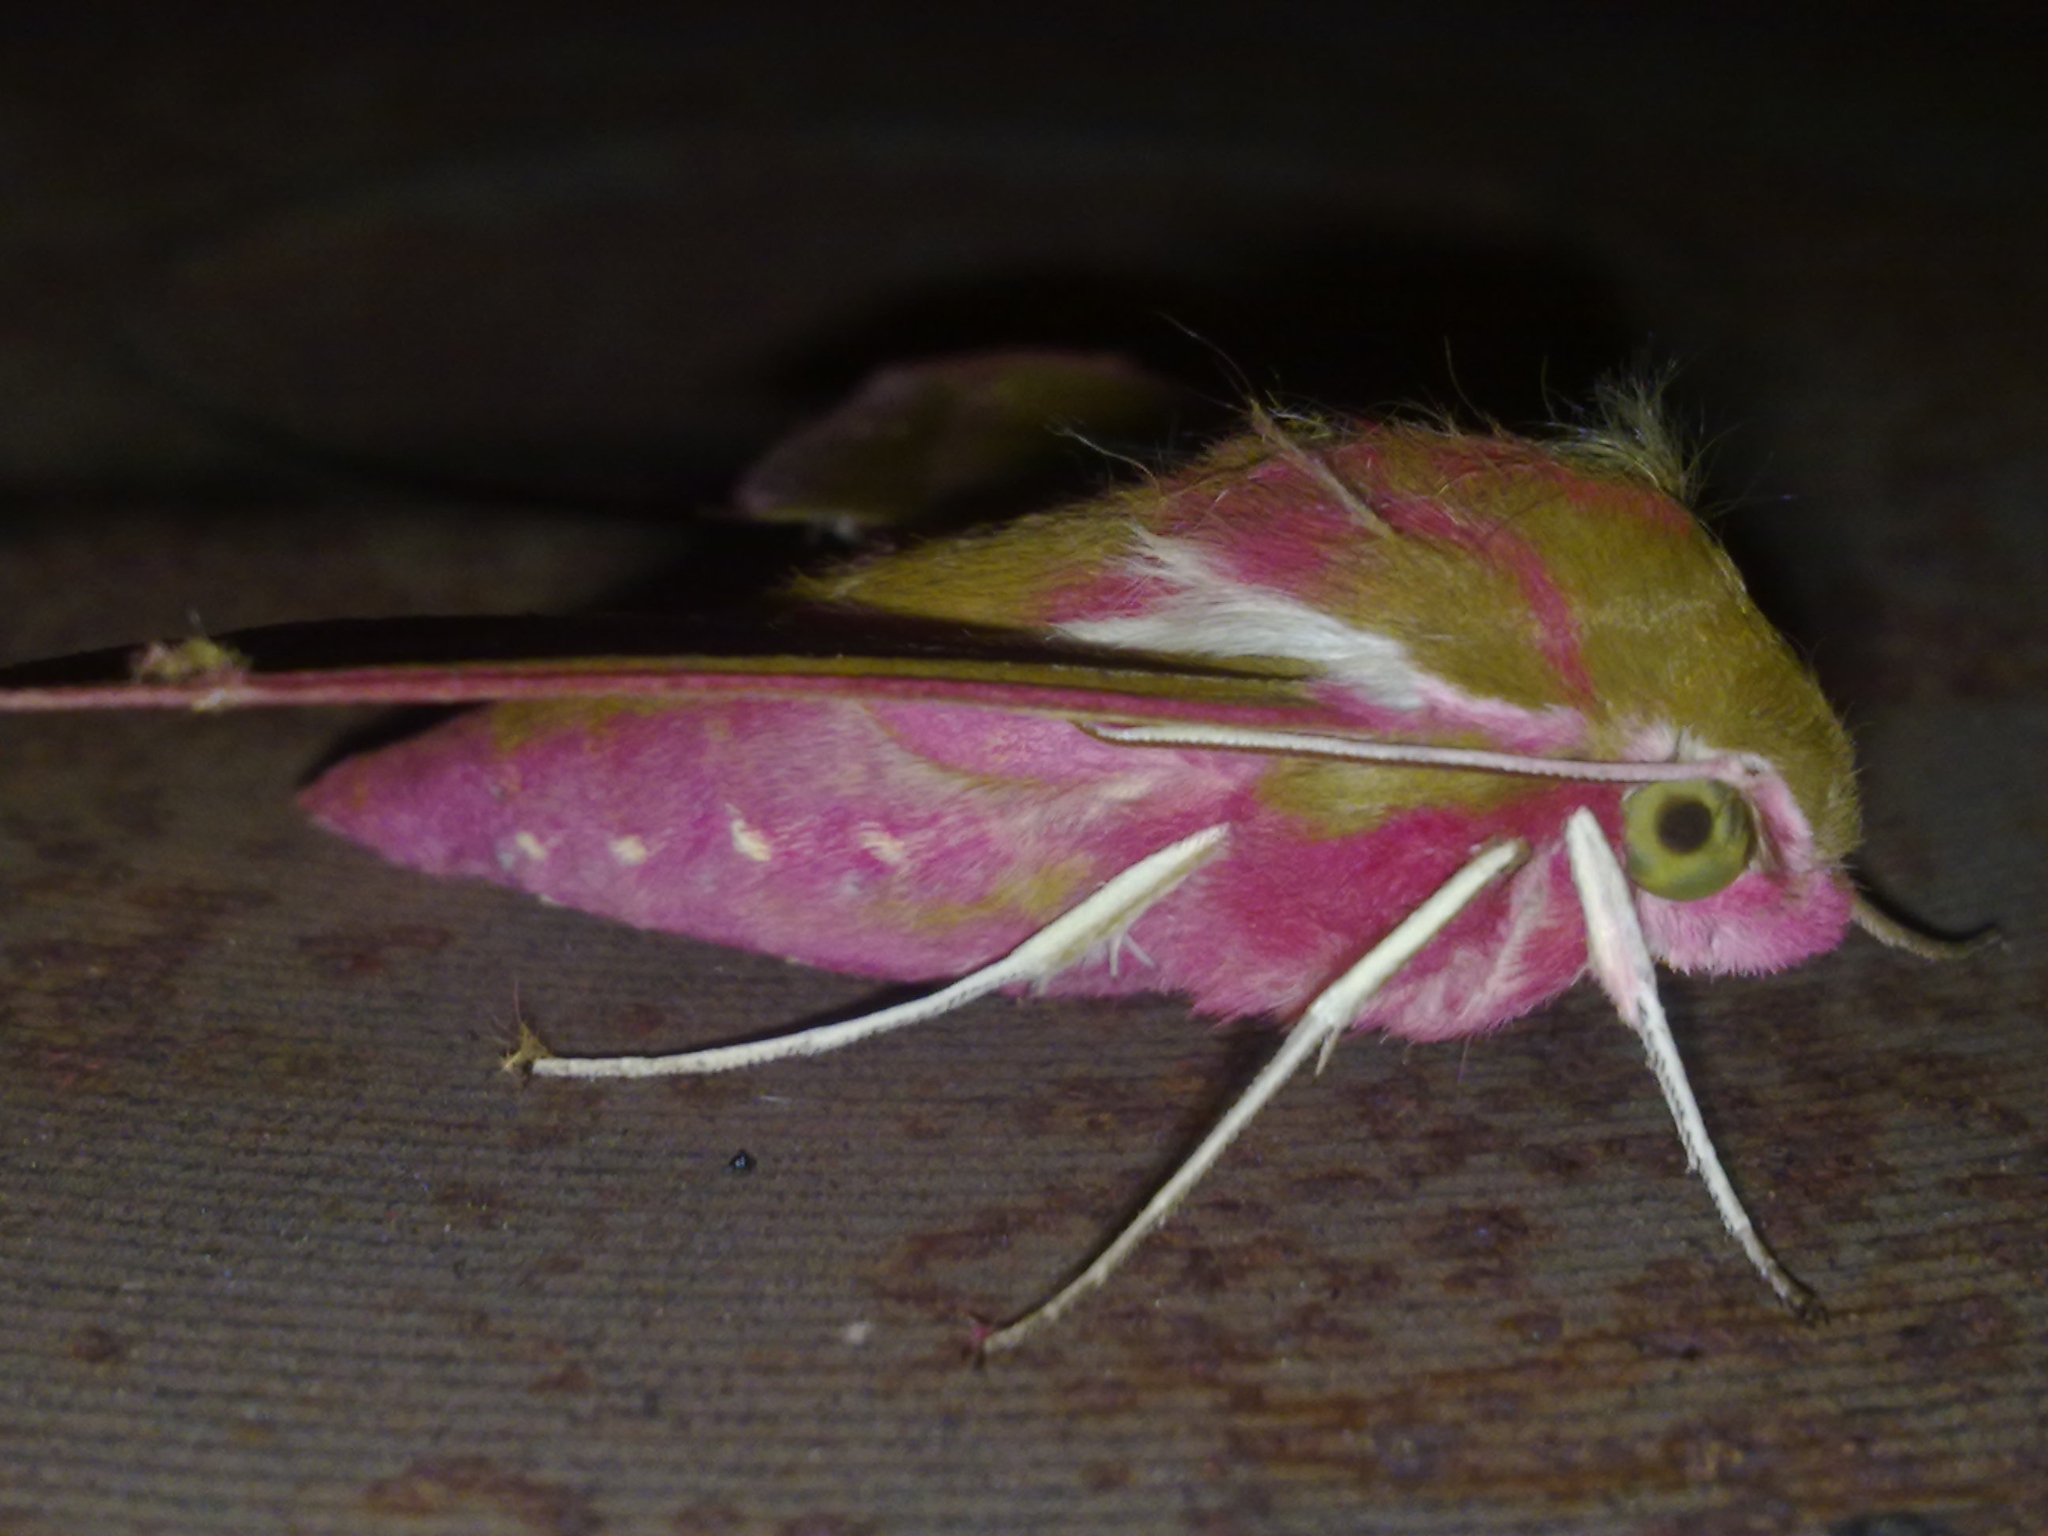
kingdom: Animalia
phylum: Arthropoda
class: Insecta
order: Lepidoptera
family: Sphingidae
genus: Deilephila
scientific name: Deilephila elpenor
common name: Elephant hawk-moth
